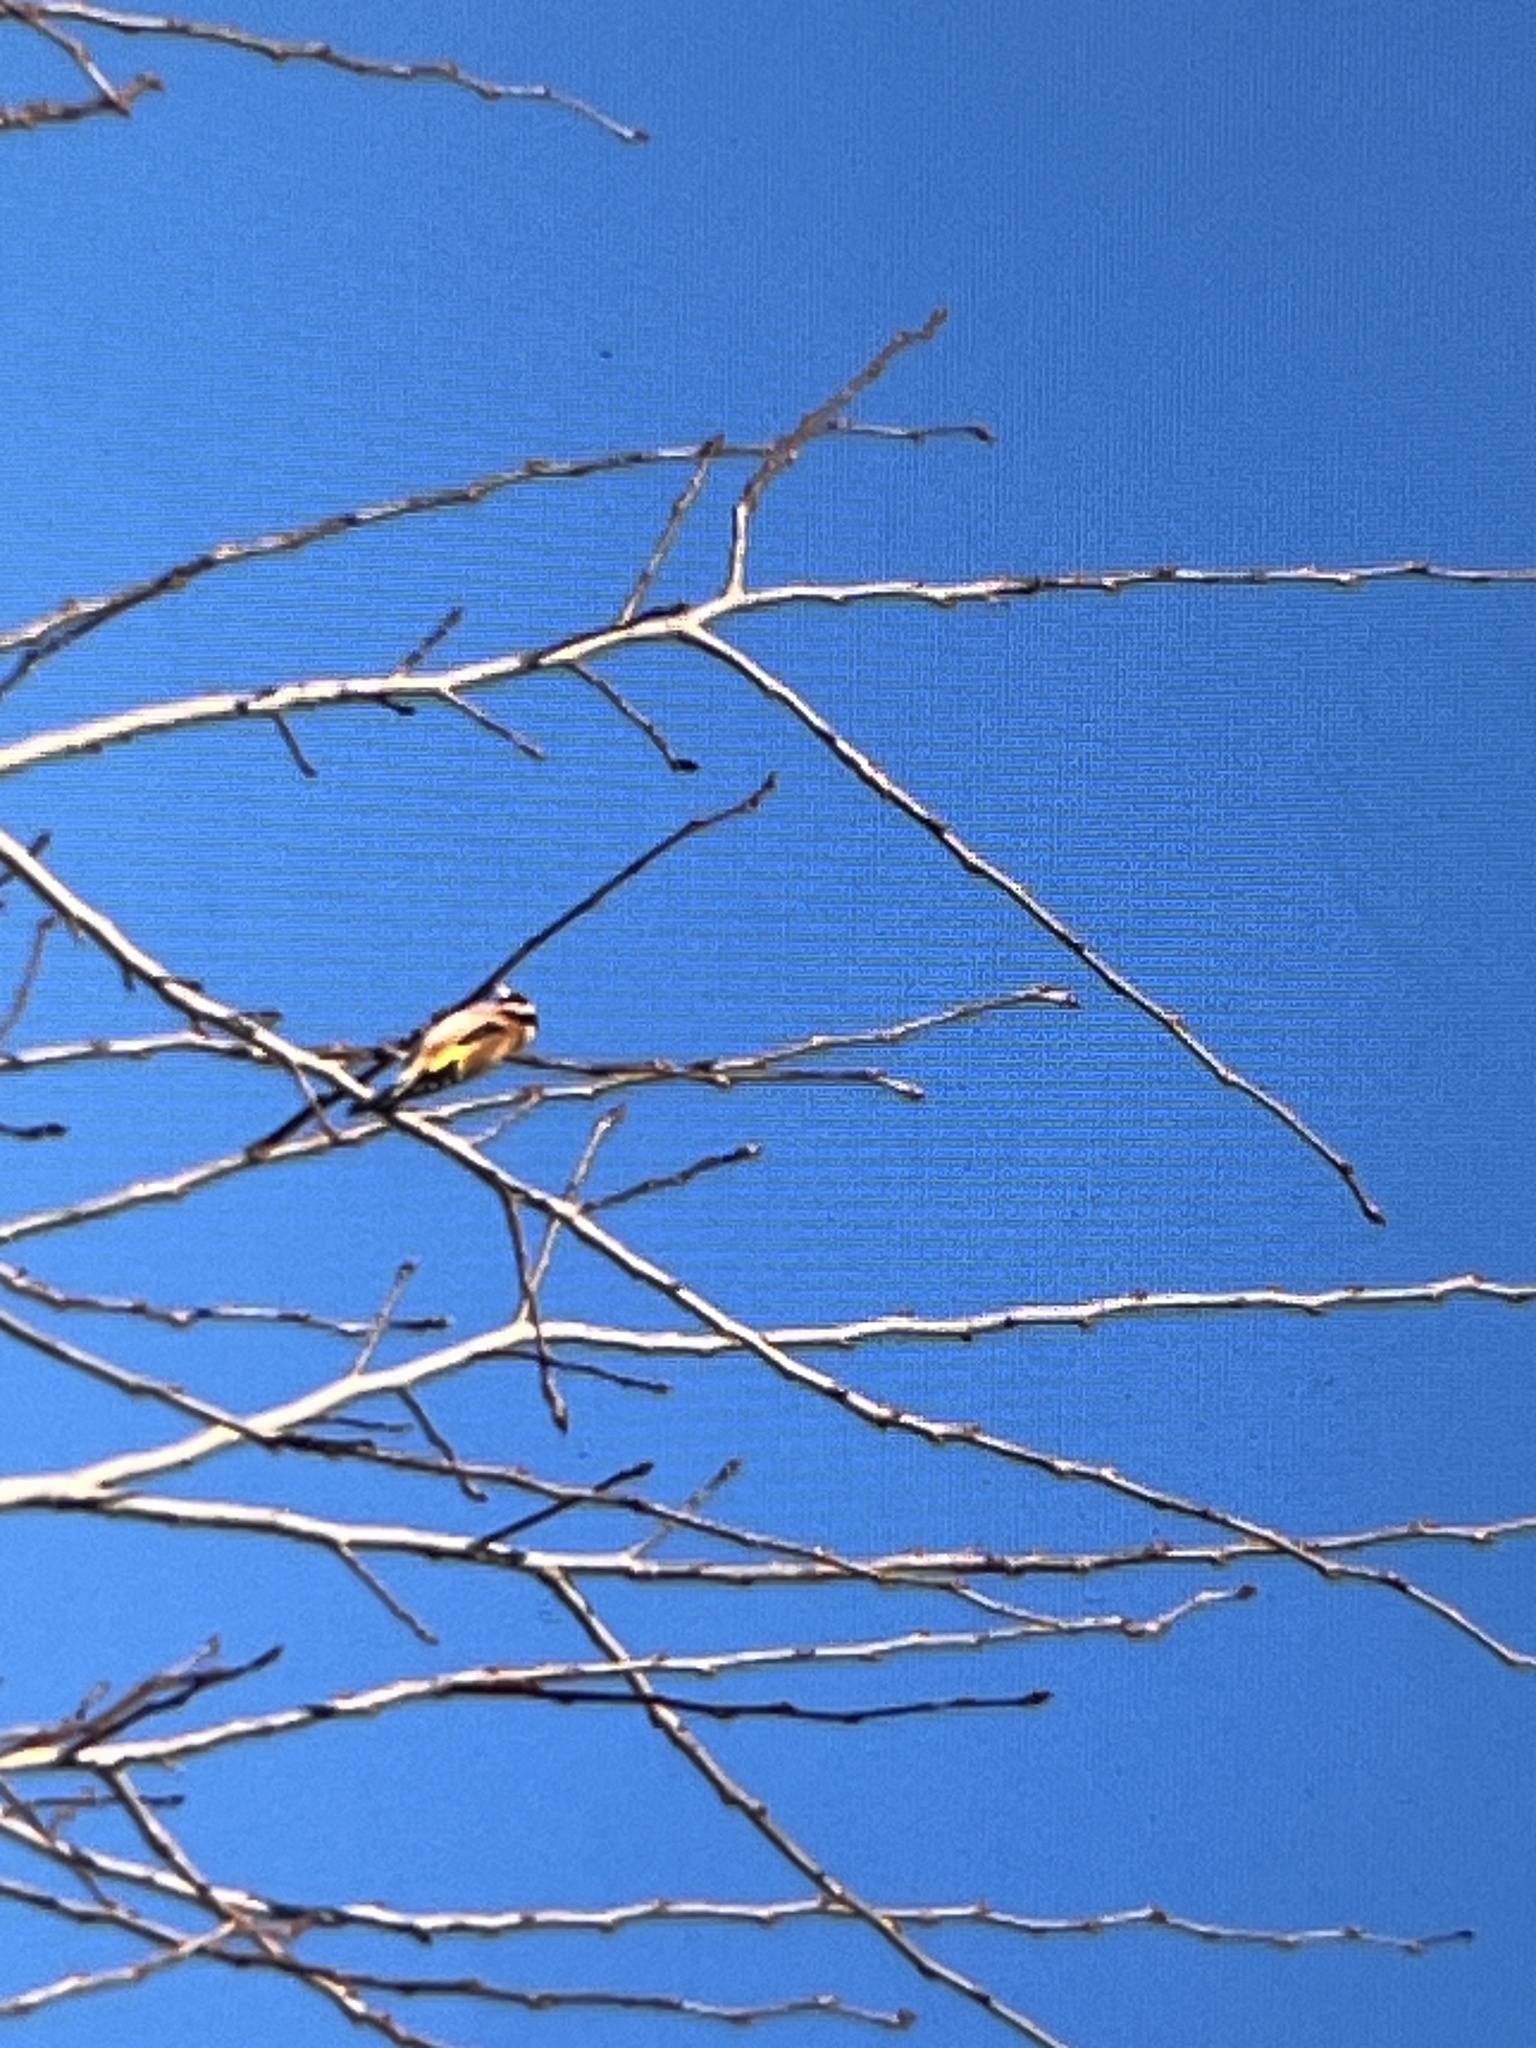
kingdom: Animalia
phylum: Chordata
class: Aves
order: Passeriformes
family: Fringillidae
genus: Carduelis
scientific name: Carduelis carduelis
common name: European goldfinch
